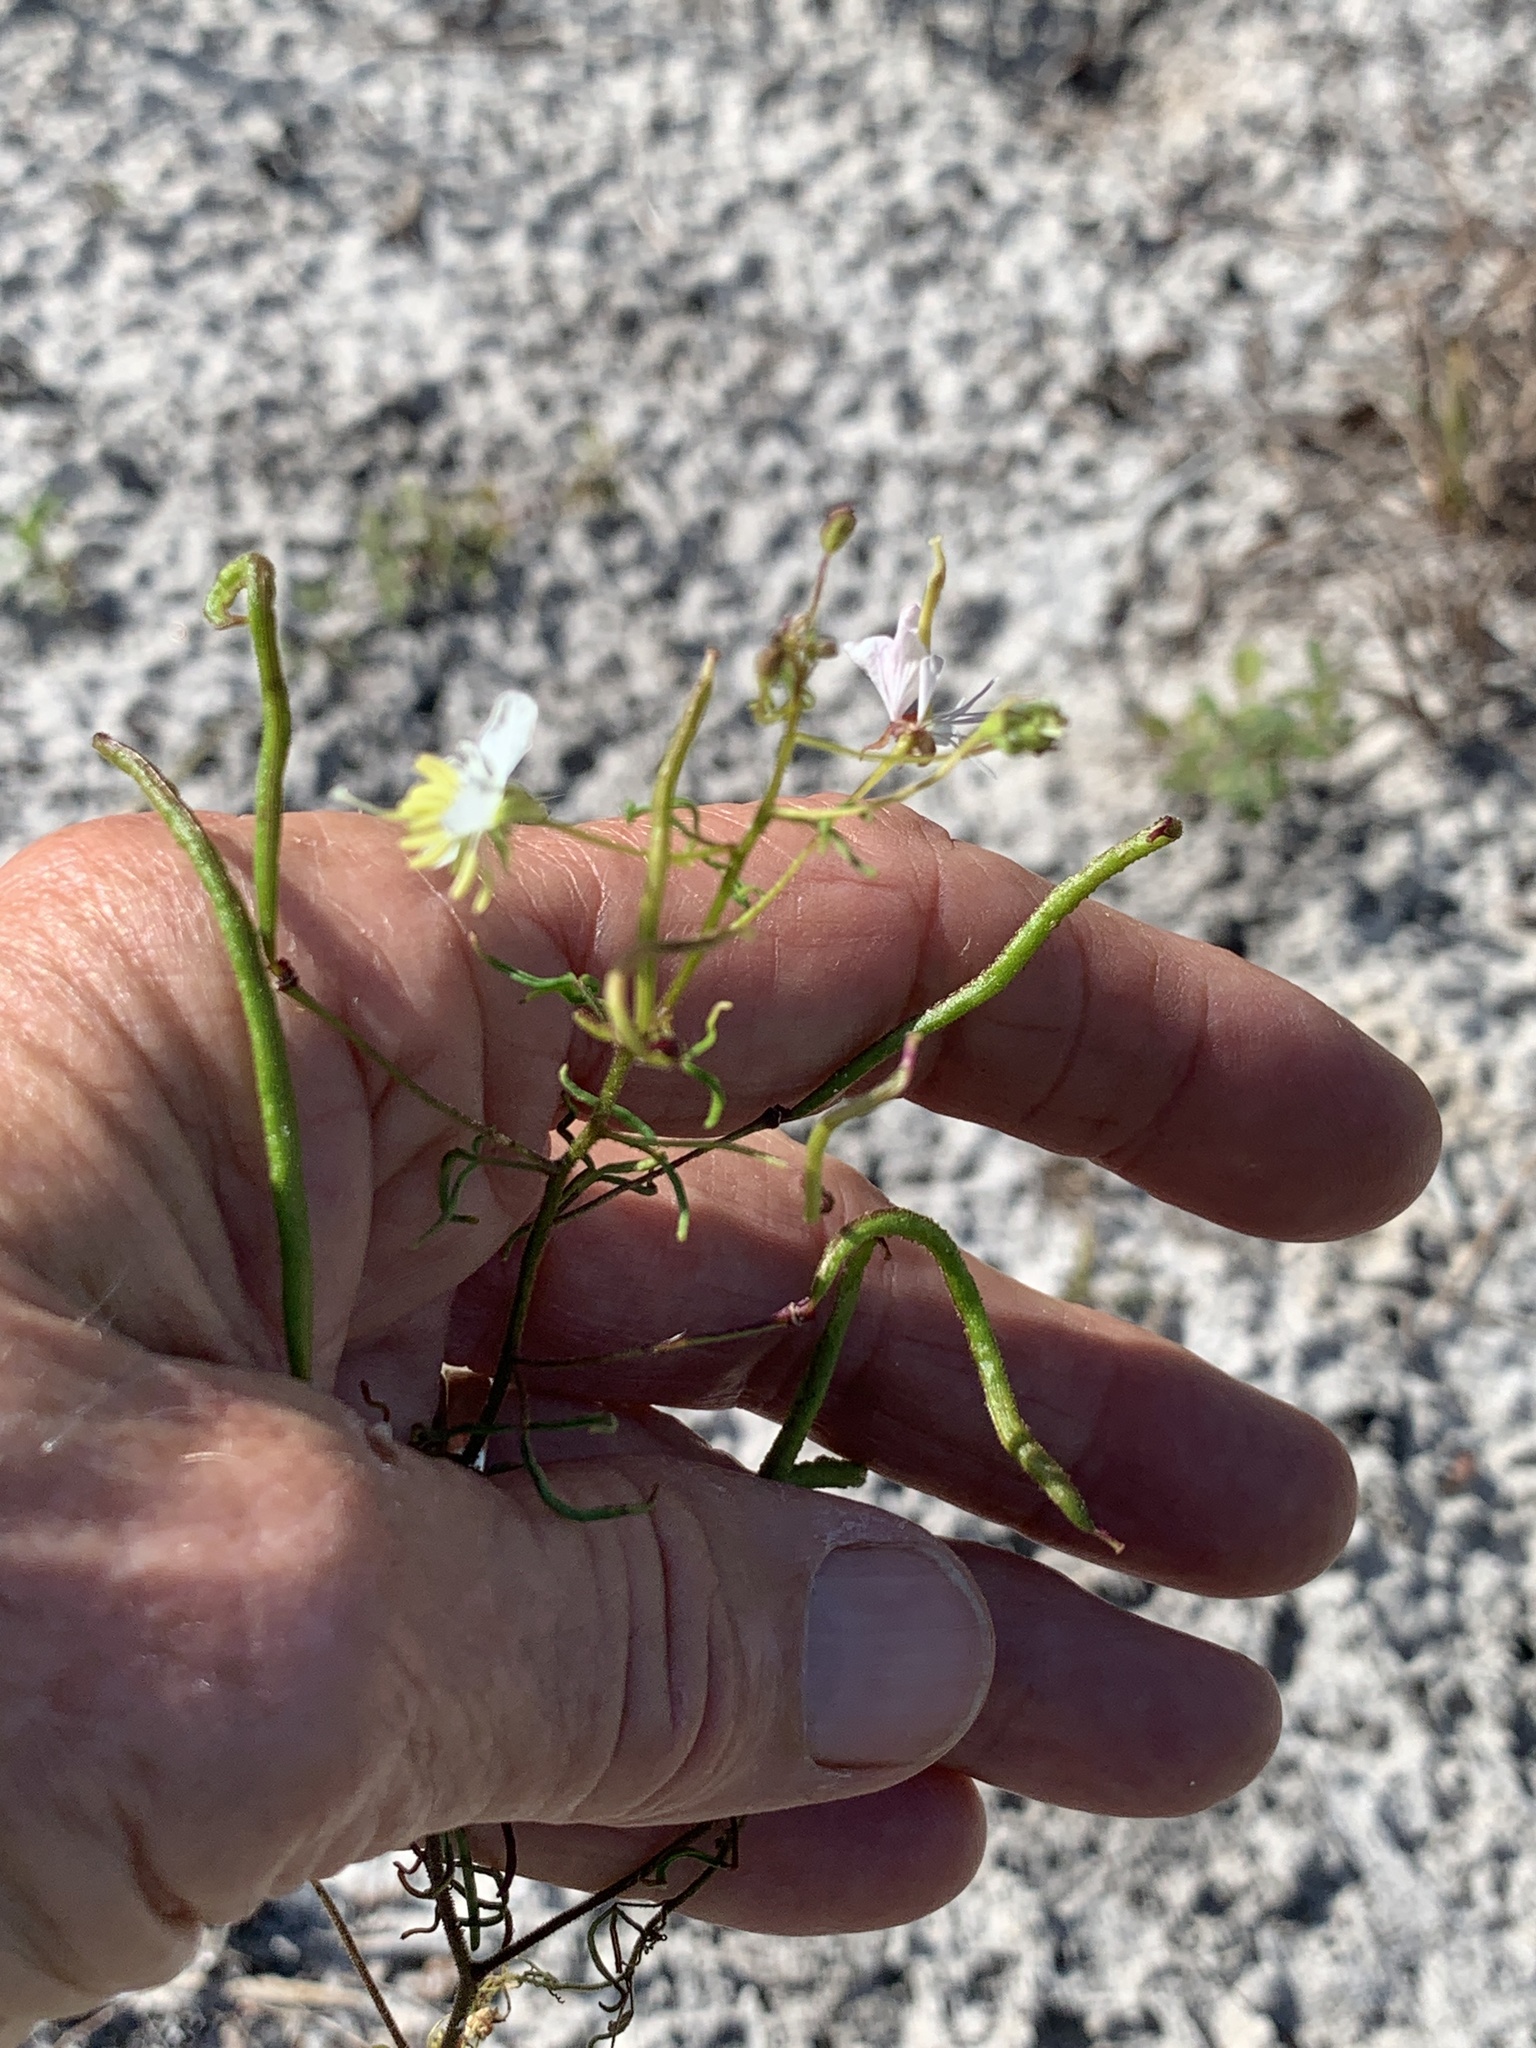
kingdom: Plantae
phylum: Tracheophyta
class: Magnoliopsida
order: Brassicales
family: Cleomaceae
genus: Polanisia
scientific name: Polanisia tenuifolia
